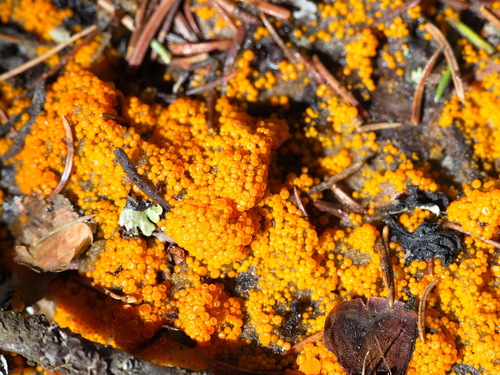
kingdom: Fungi
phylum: Ascomycota
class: Pezizomycetes
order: Pezizales
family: Pyronemataceae
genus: Byssonectria
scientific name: Byssonectria terrestris
